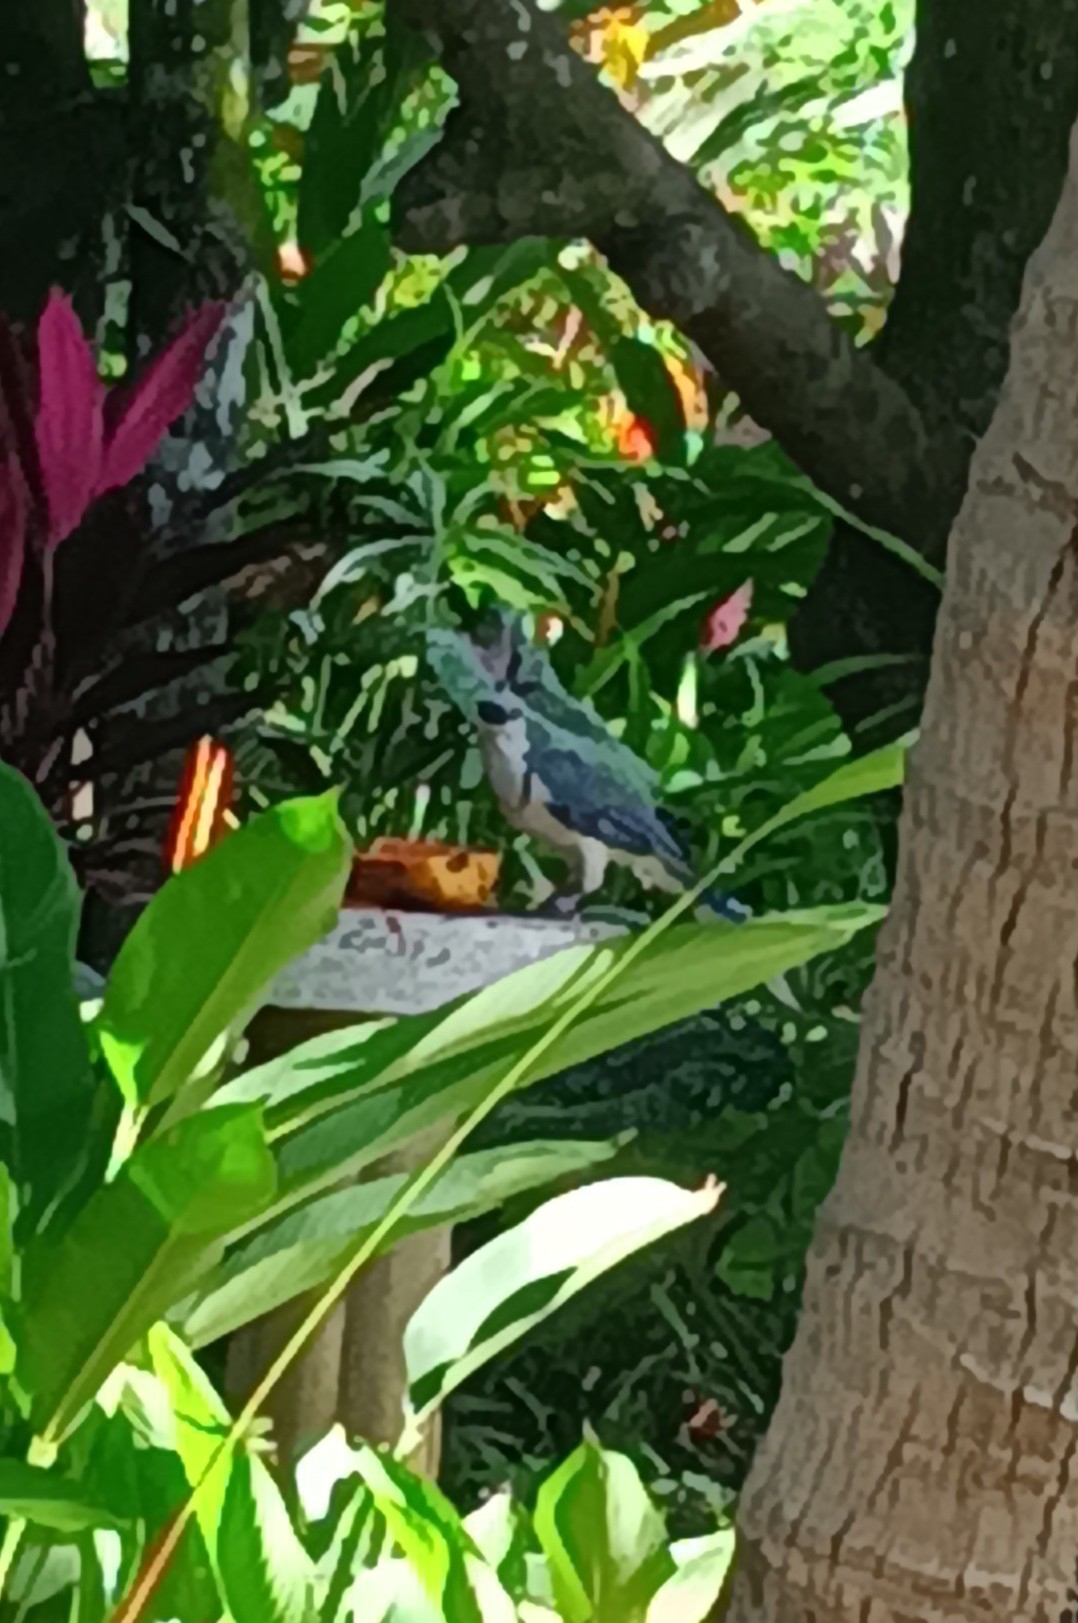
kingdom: Animalia
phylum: Chordata
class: Aves
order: Passeriformes
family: Corvidae
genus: Calocitta
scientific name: Calocitta formosa
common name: White-throated magpie-jay
